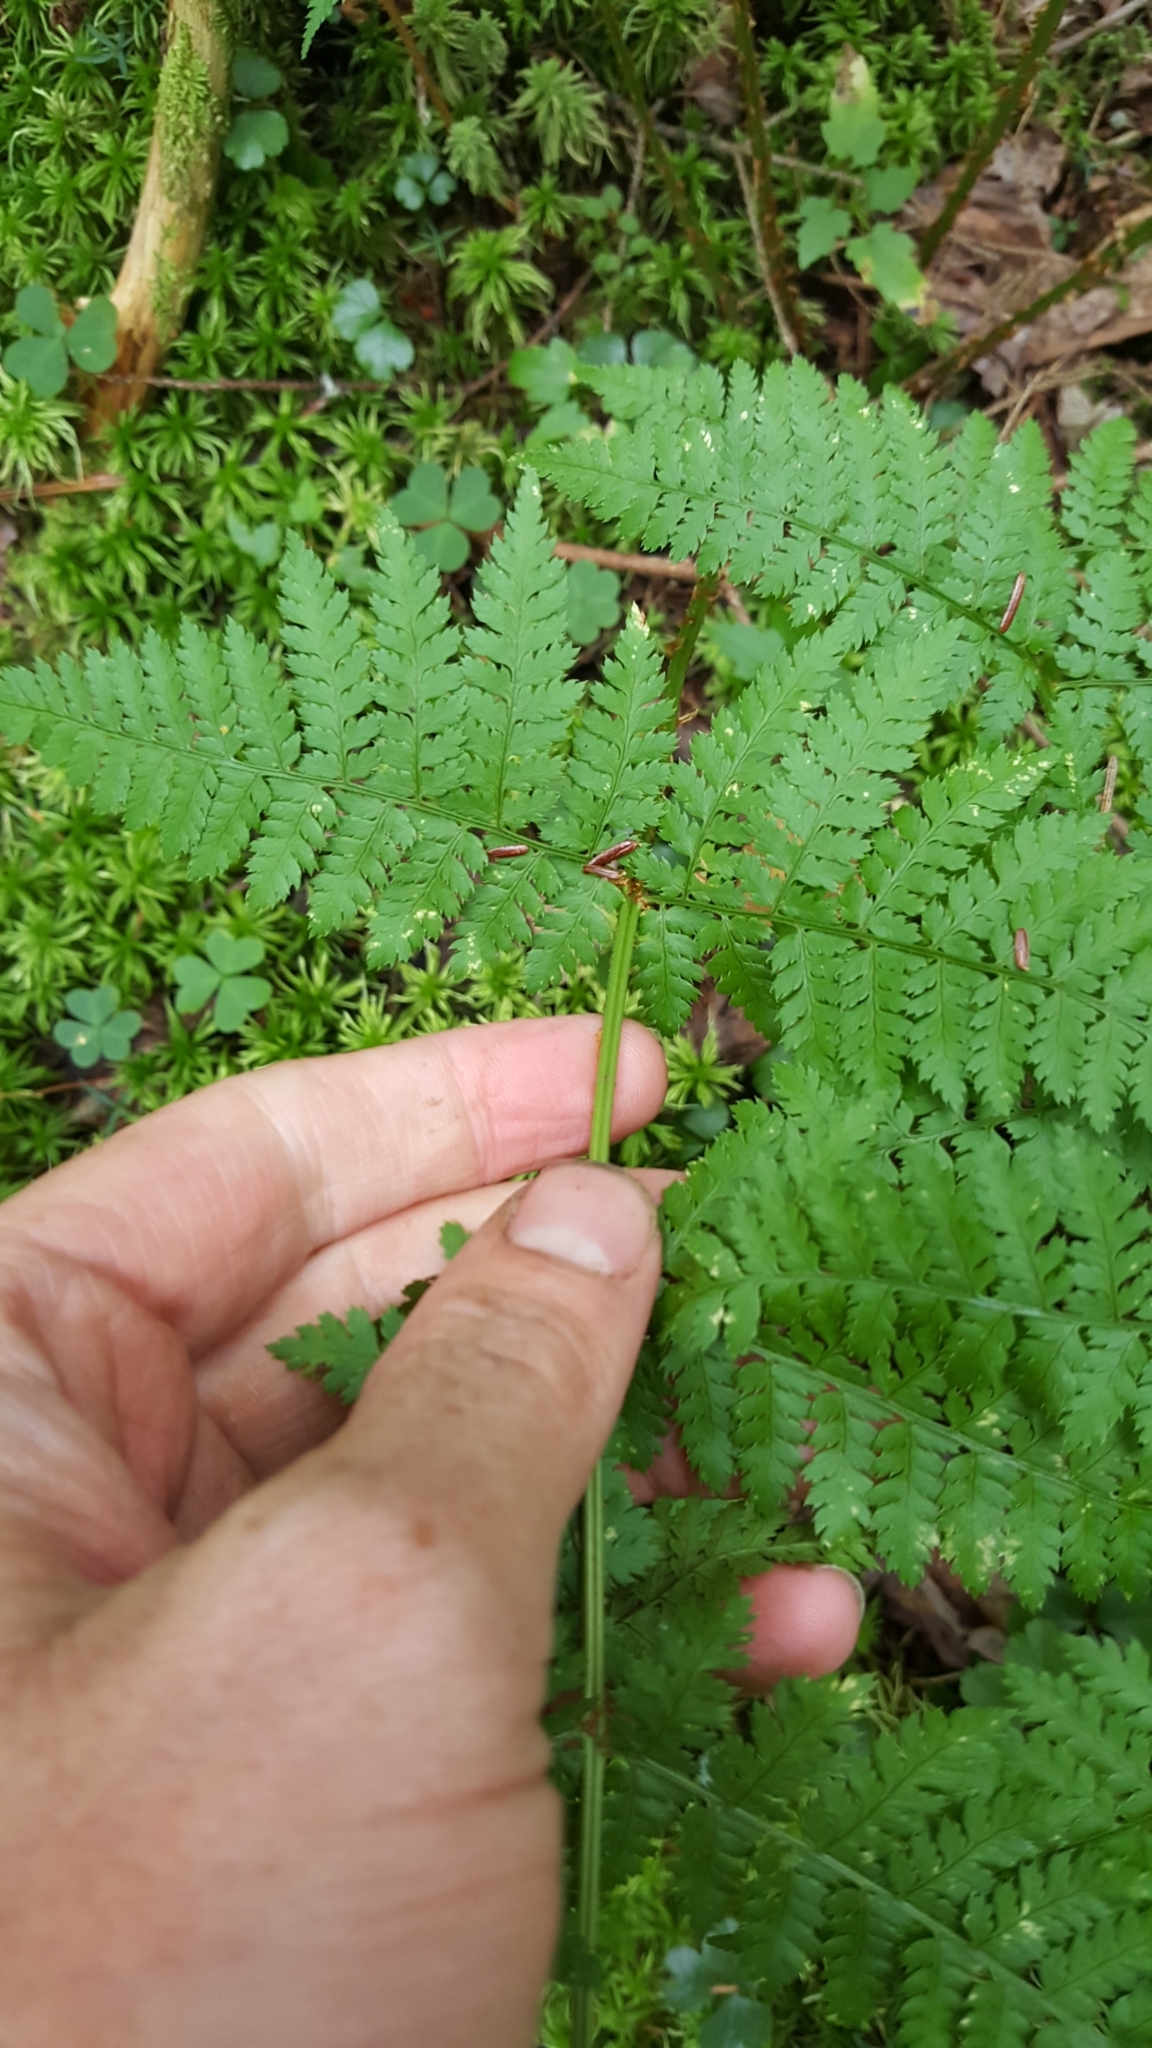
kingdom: Plantae
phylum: Tracheophyta
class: Polypodiopsida
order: Polypodiales
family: Dryopteridaceae
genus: Dryopteris
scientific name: Dryopteris intermedia
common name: Evergreen wood fern
